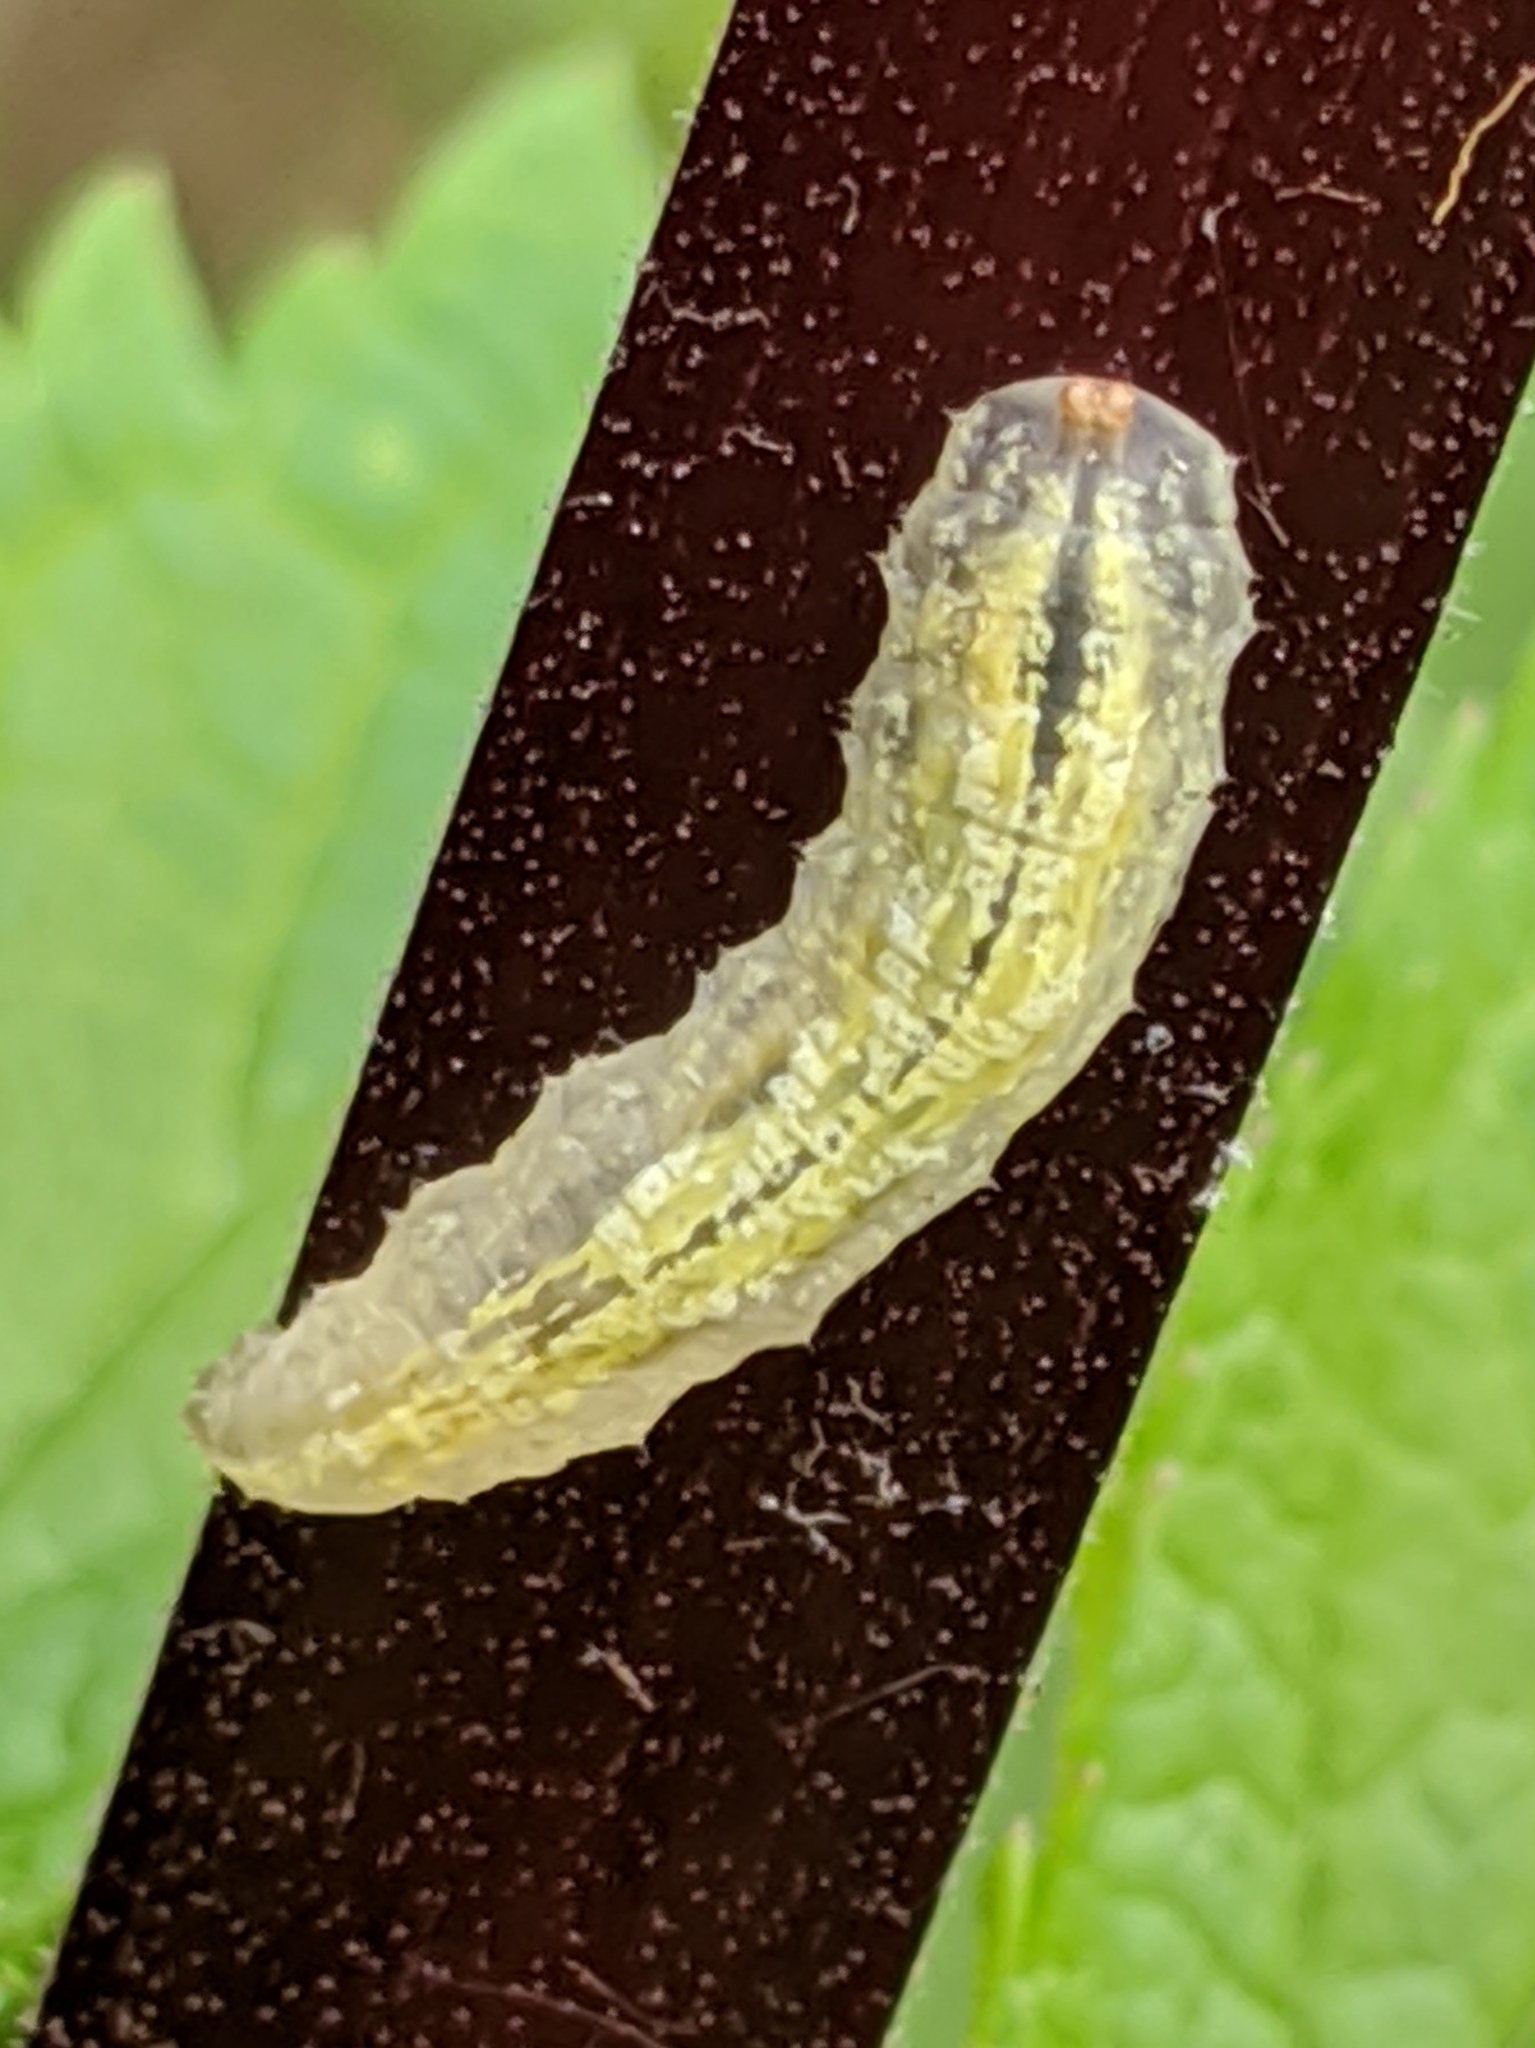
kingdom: Animalia
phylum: Arthropoda
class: Insecta
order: Diptera
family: Syrphidae
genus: Syrphus
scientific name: Syrphus
